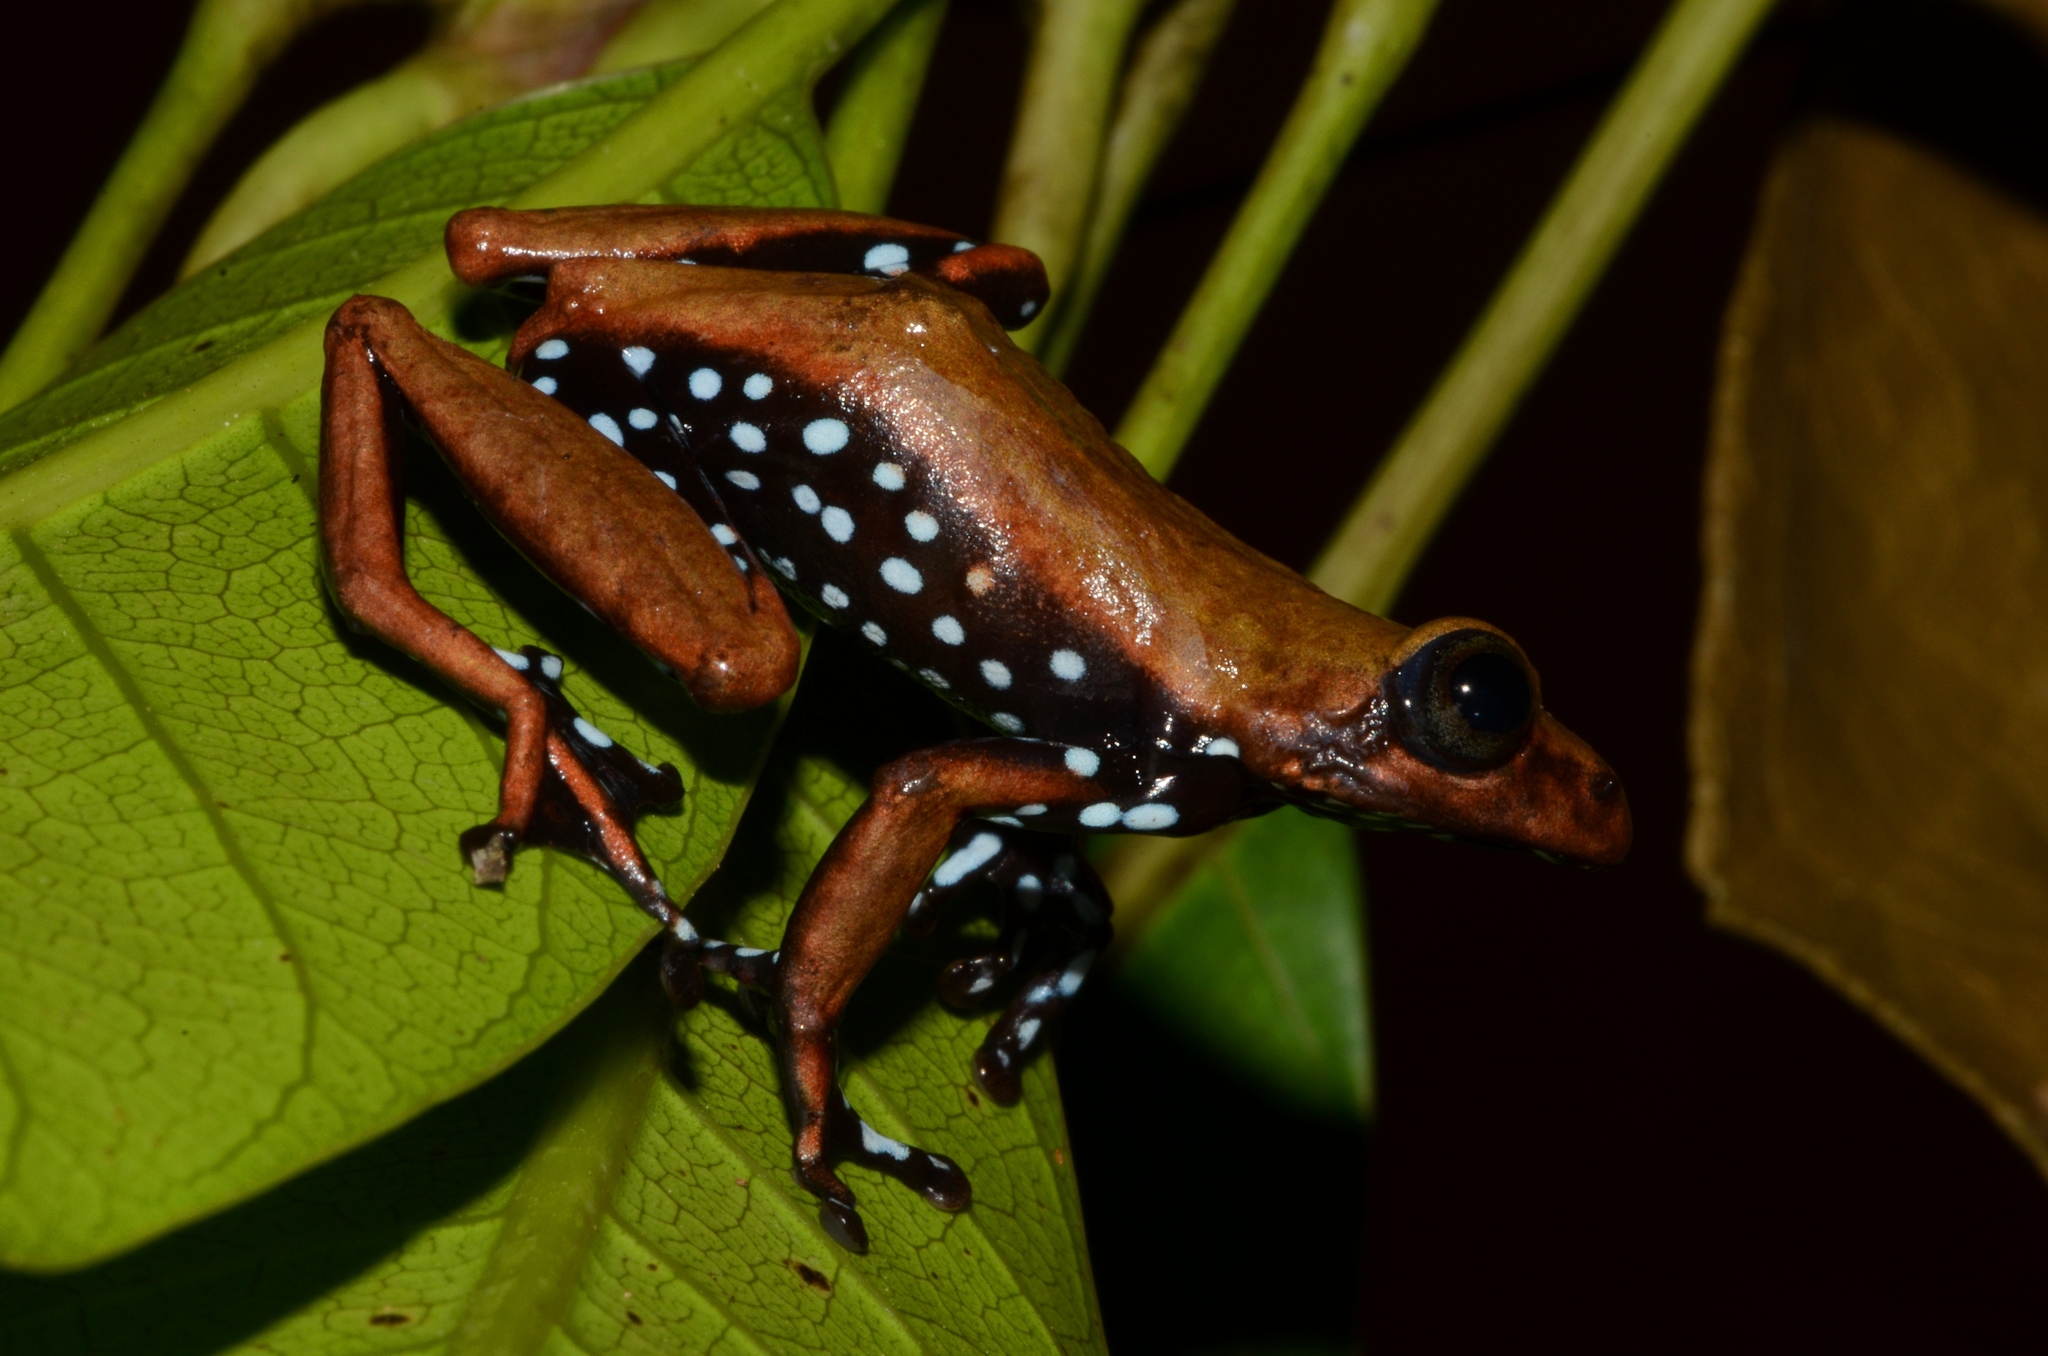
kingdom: Animalia
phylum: Chordata
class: Amphibia
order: Anura
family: Hyperoliidae
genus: Hyperolius
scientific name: Hyperolius pardalis
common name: Leopard reed frog
